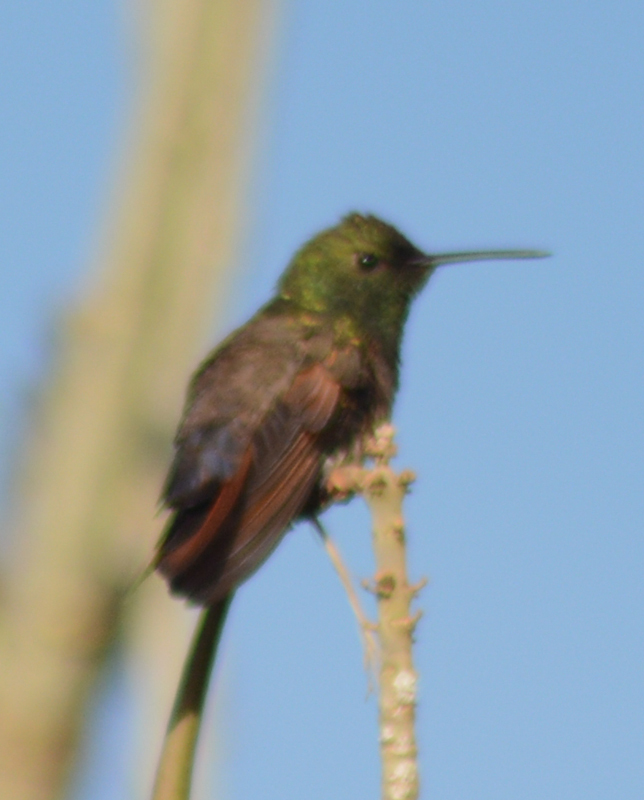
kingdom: Animalia
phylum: Chordata
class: Aves
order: Apodiformes
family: Trochilidae
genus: Saucerottia
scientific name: Saucerottia beryllina
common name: Berylline hummingbird
